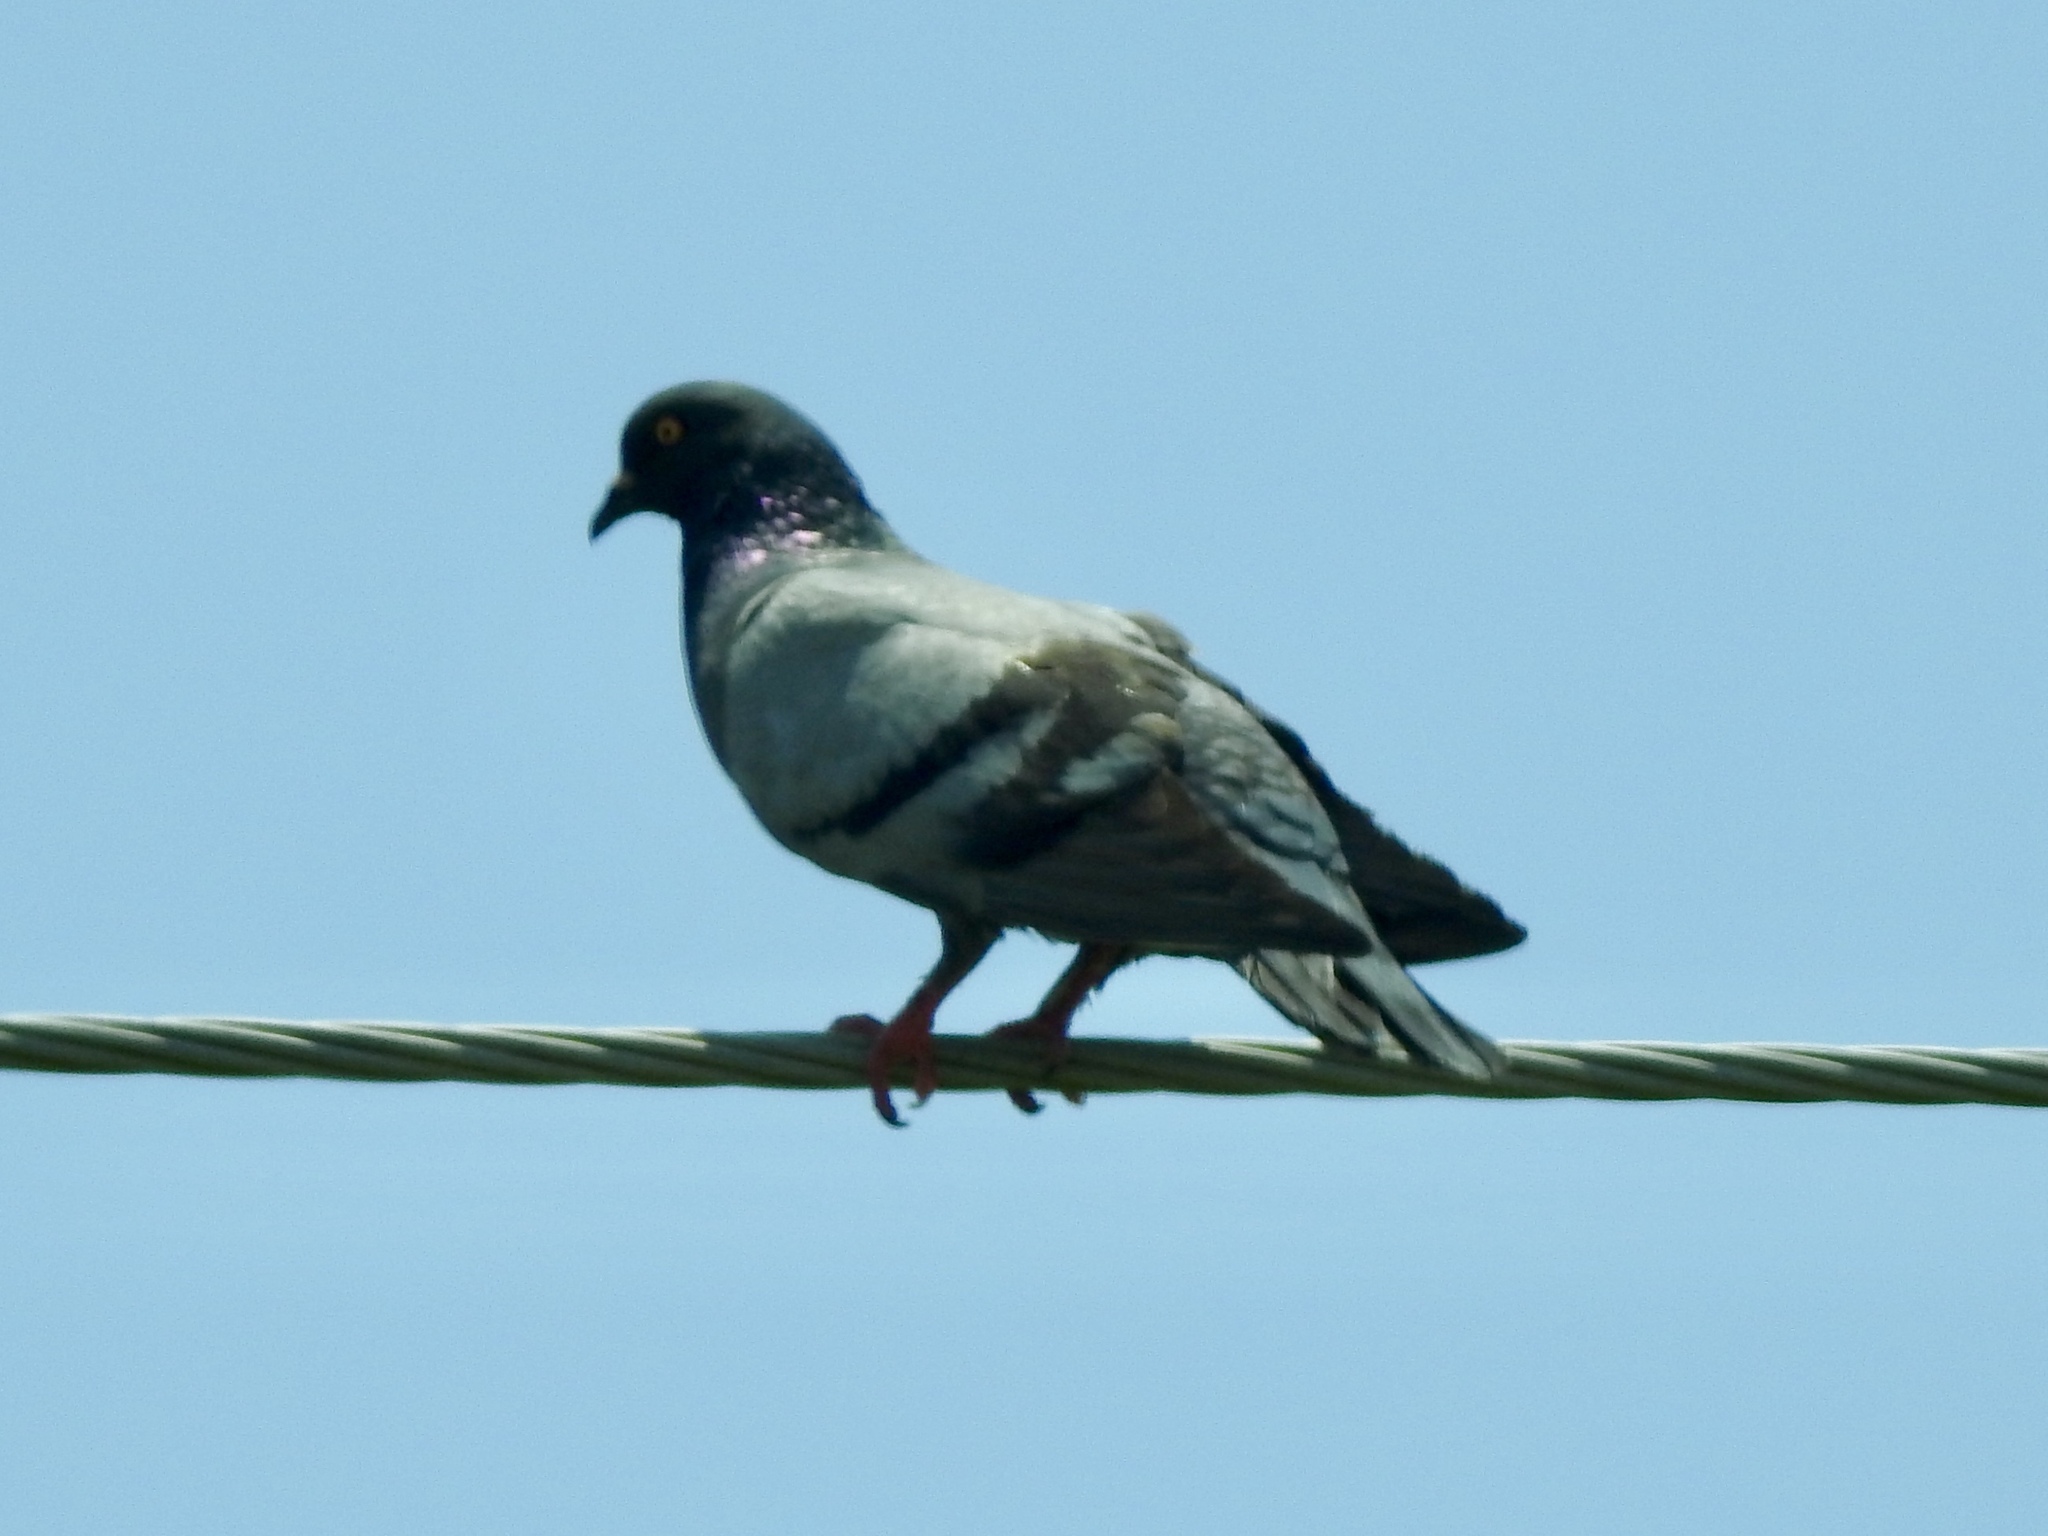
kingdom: Animalia
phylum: Chordata
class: Aves
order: Columbiformes
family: Columbidae
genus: Columba
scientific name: Columba livia
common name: Rock pigeon
